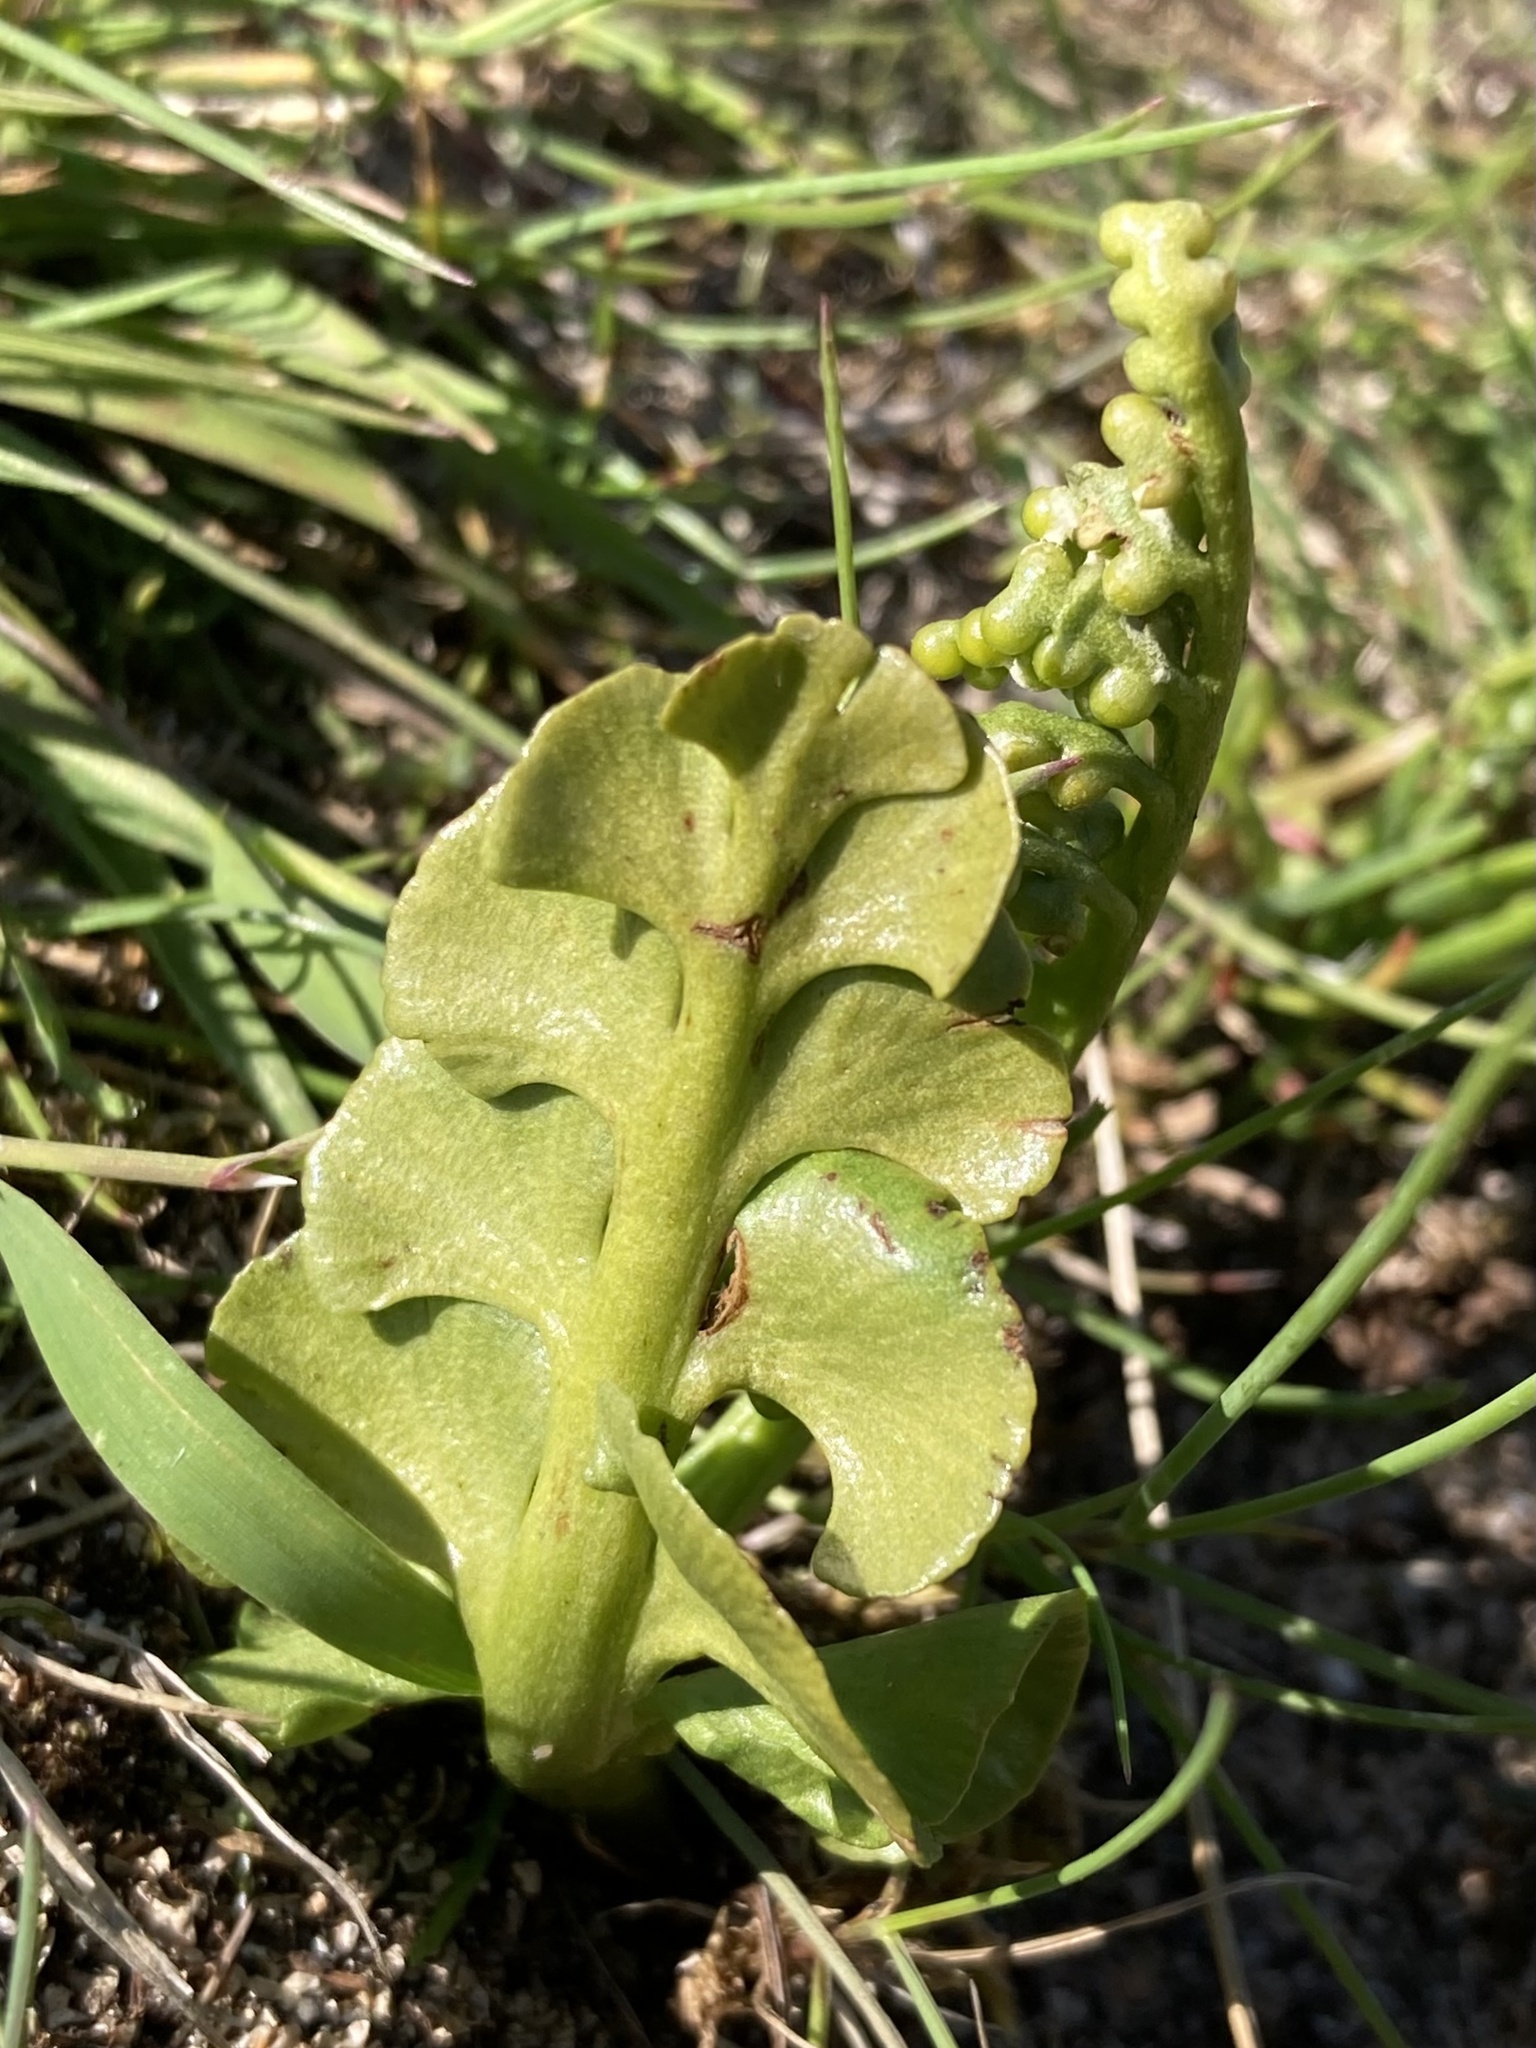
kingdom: Plantae
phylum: Tracheophyta
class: Polypodiopsida
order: Ophioglossales
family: Ophioglossaceae
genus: Botrychium
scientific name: Botrychium lunaria
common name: Moonwort
